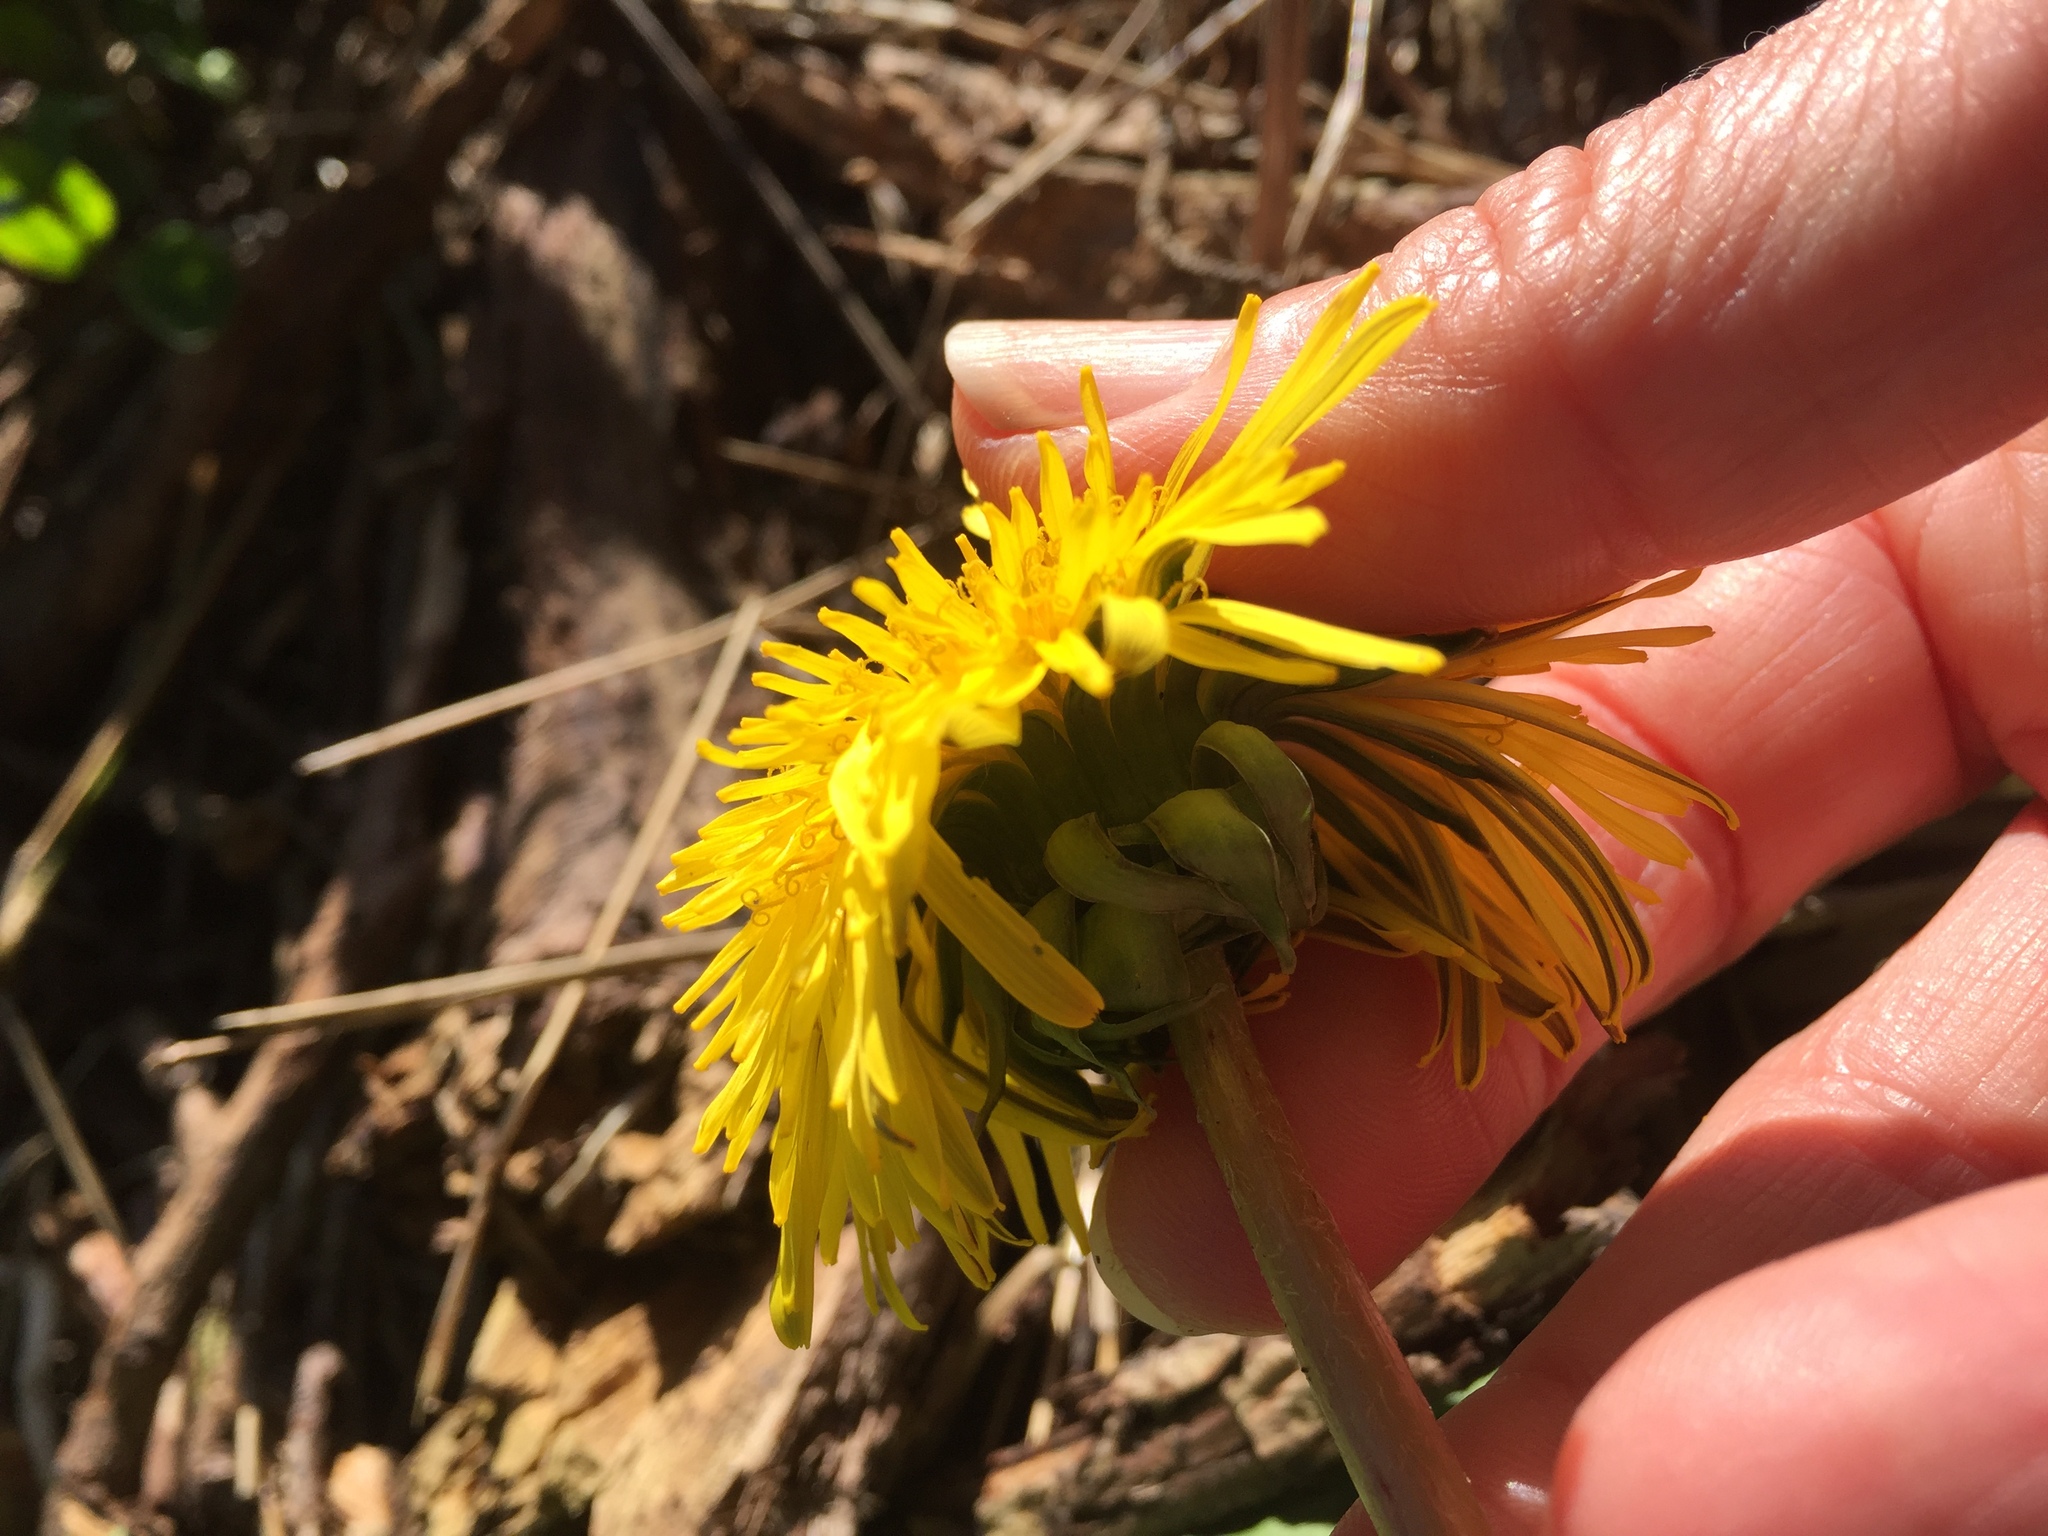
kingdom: Plantae
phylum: Tracheophyta
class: Magnoliopsida
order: Asterales
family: Asteraceae
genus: Taraxacum
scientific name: Taraxacum officinale
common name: Common dandelion
